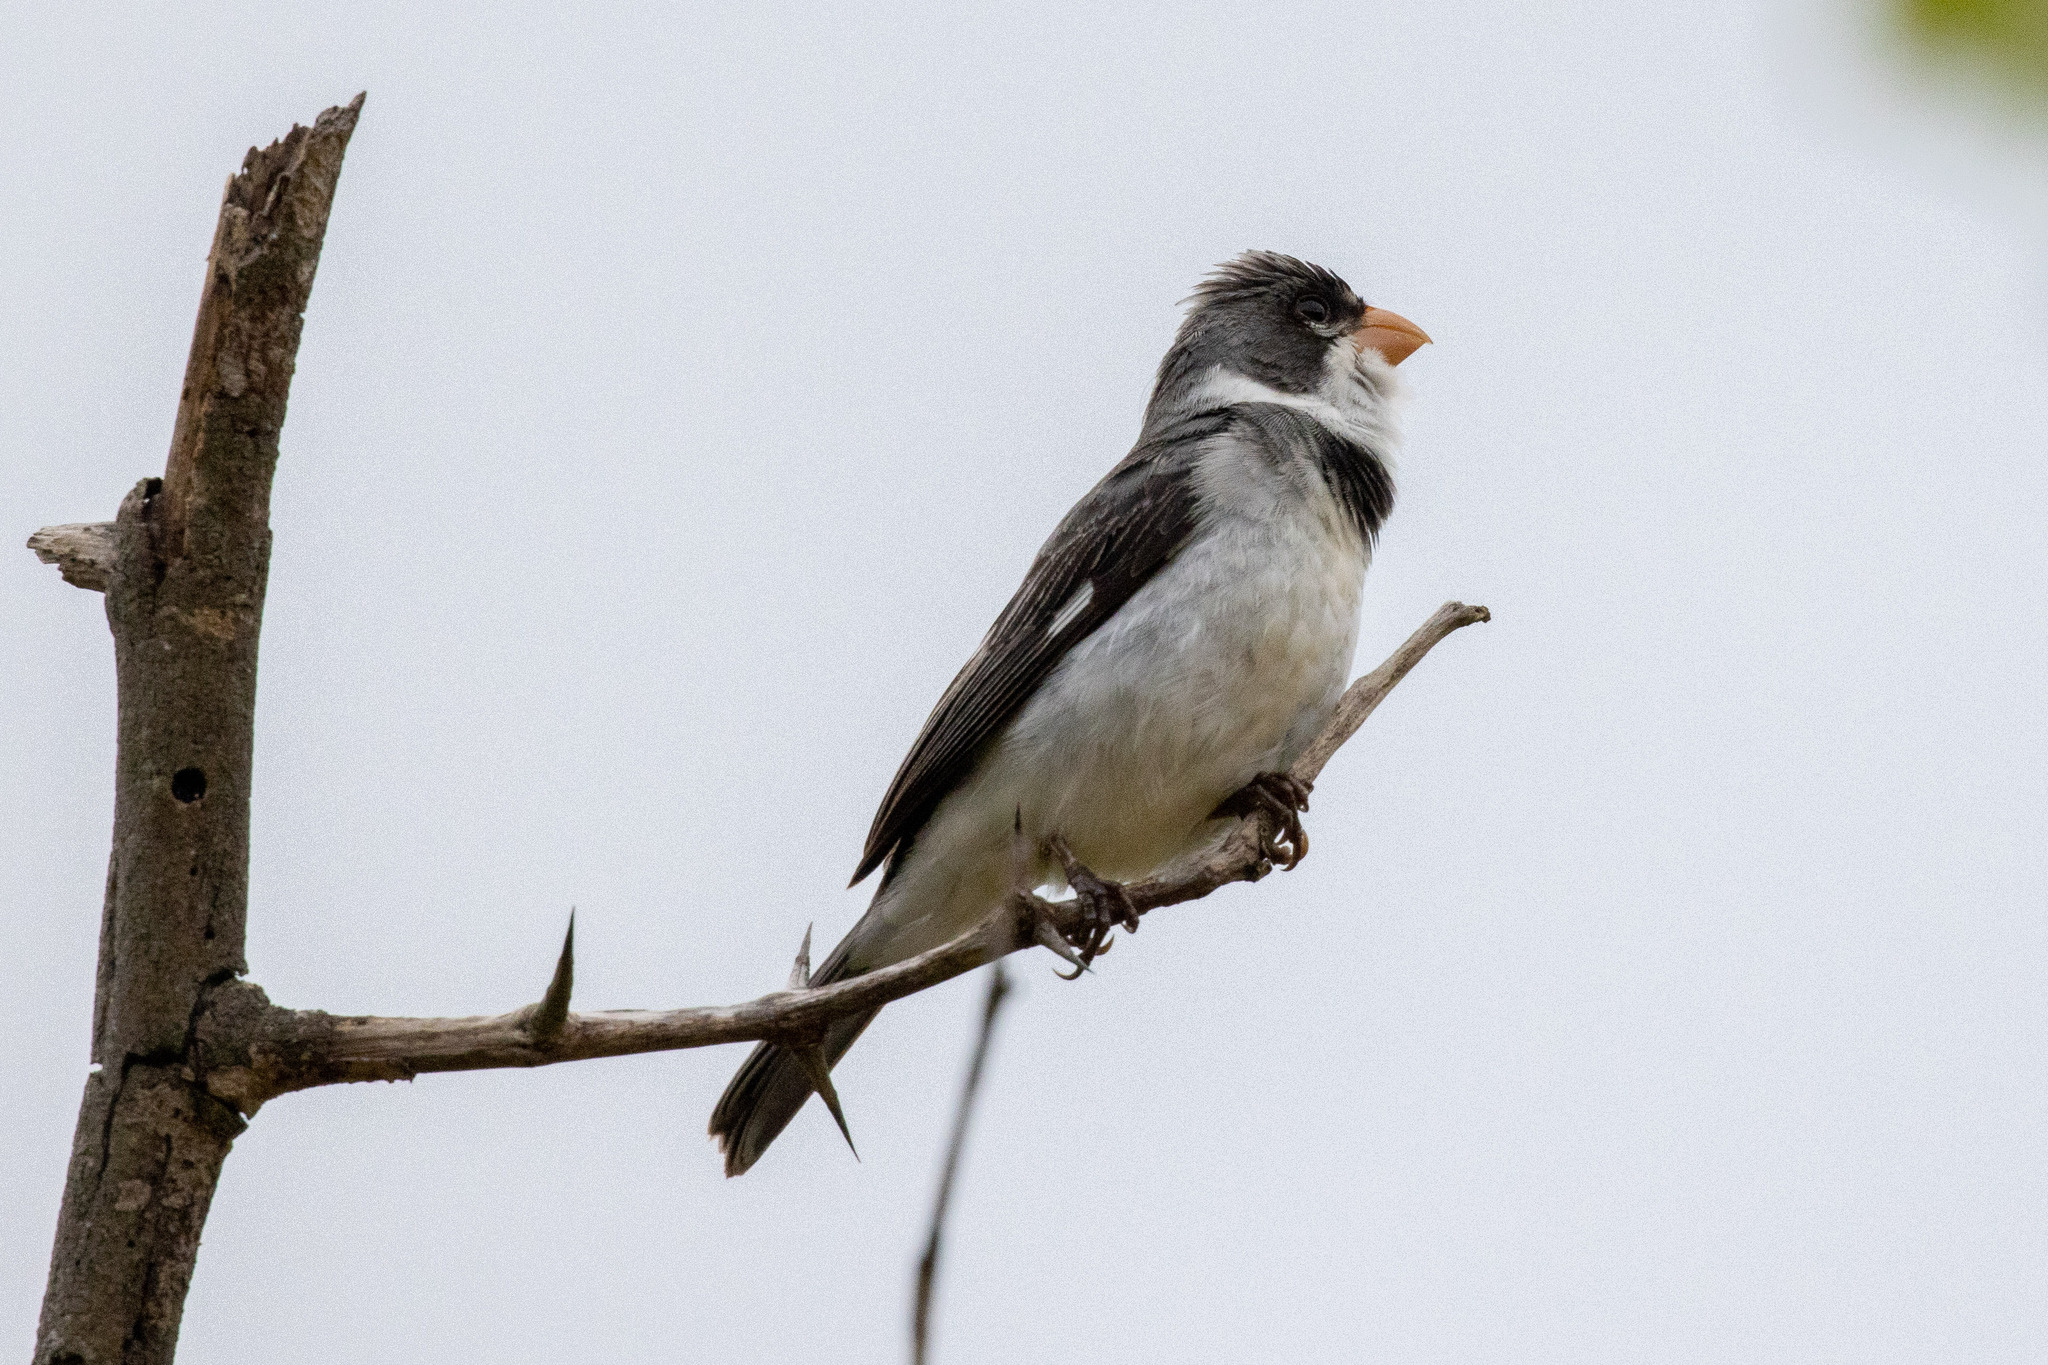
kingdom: Animalia
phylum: Chordata
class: Aves
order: Passeriformes
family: Thraupidae
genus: Sporophila
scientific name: Sporophila albogularis
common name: White-throated seedeater
